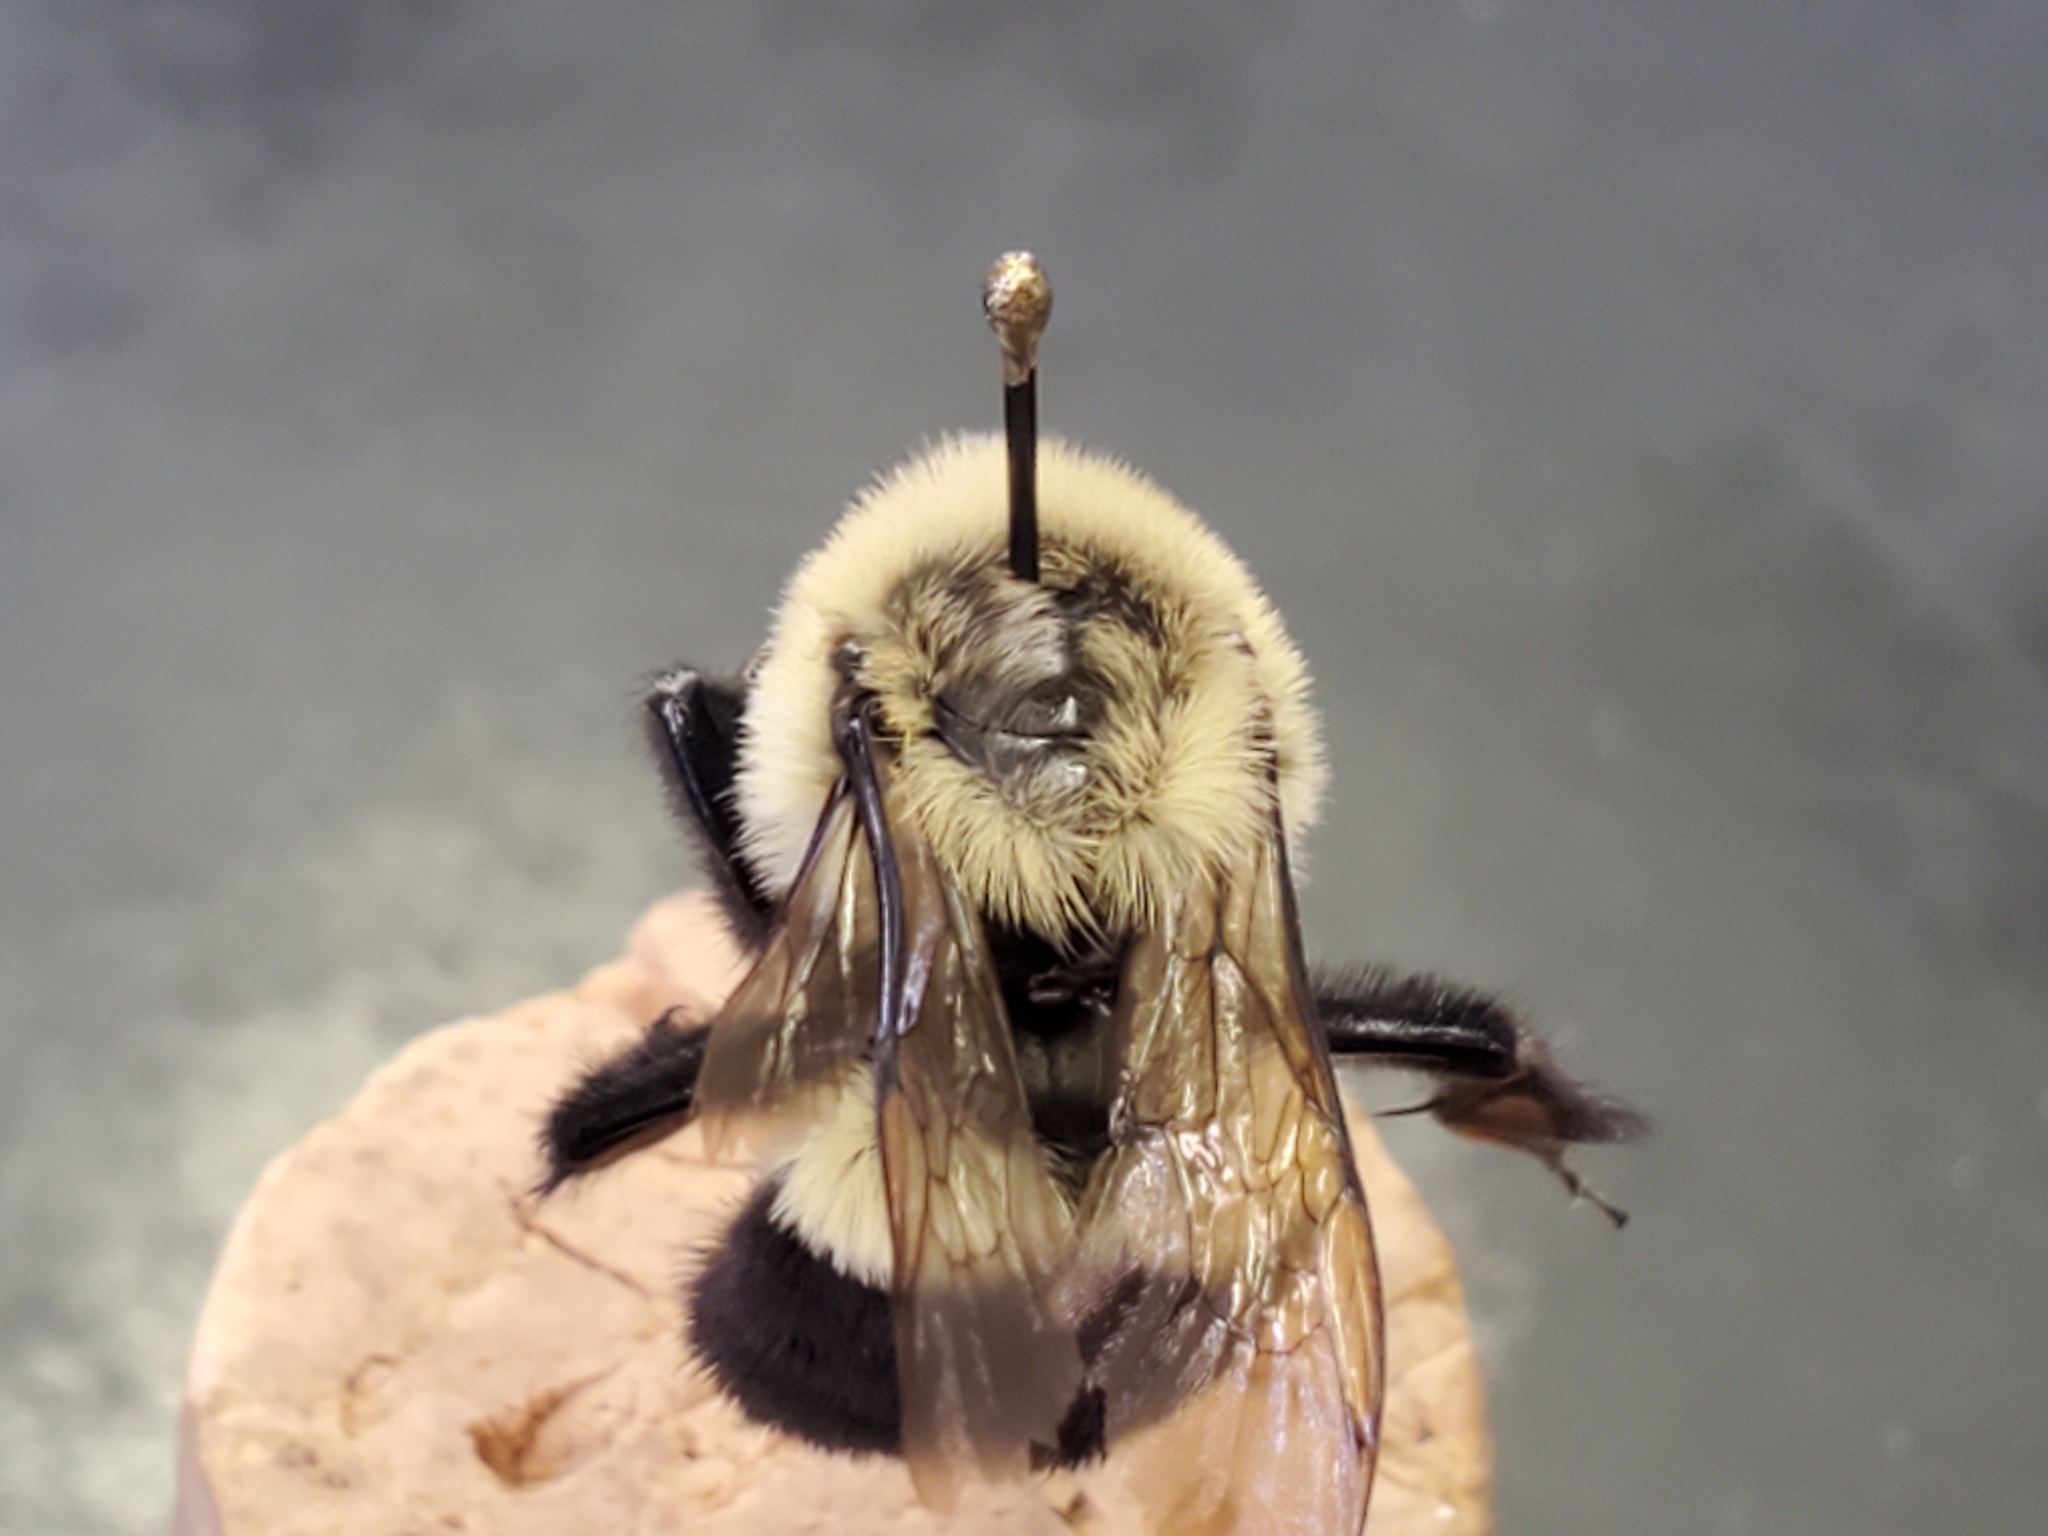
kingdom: Animalia
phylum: Arthropoda
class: Insecta
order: Hymenoptera
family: Apidae
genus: Bombus
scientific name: Bombus impatiens
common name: Common eastern bumble bee
